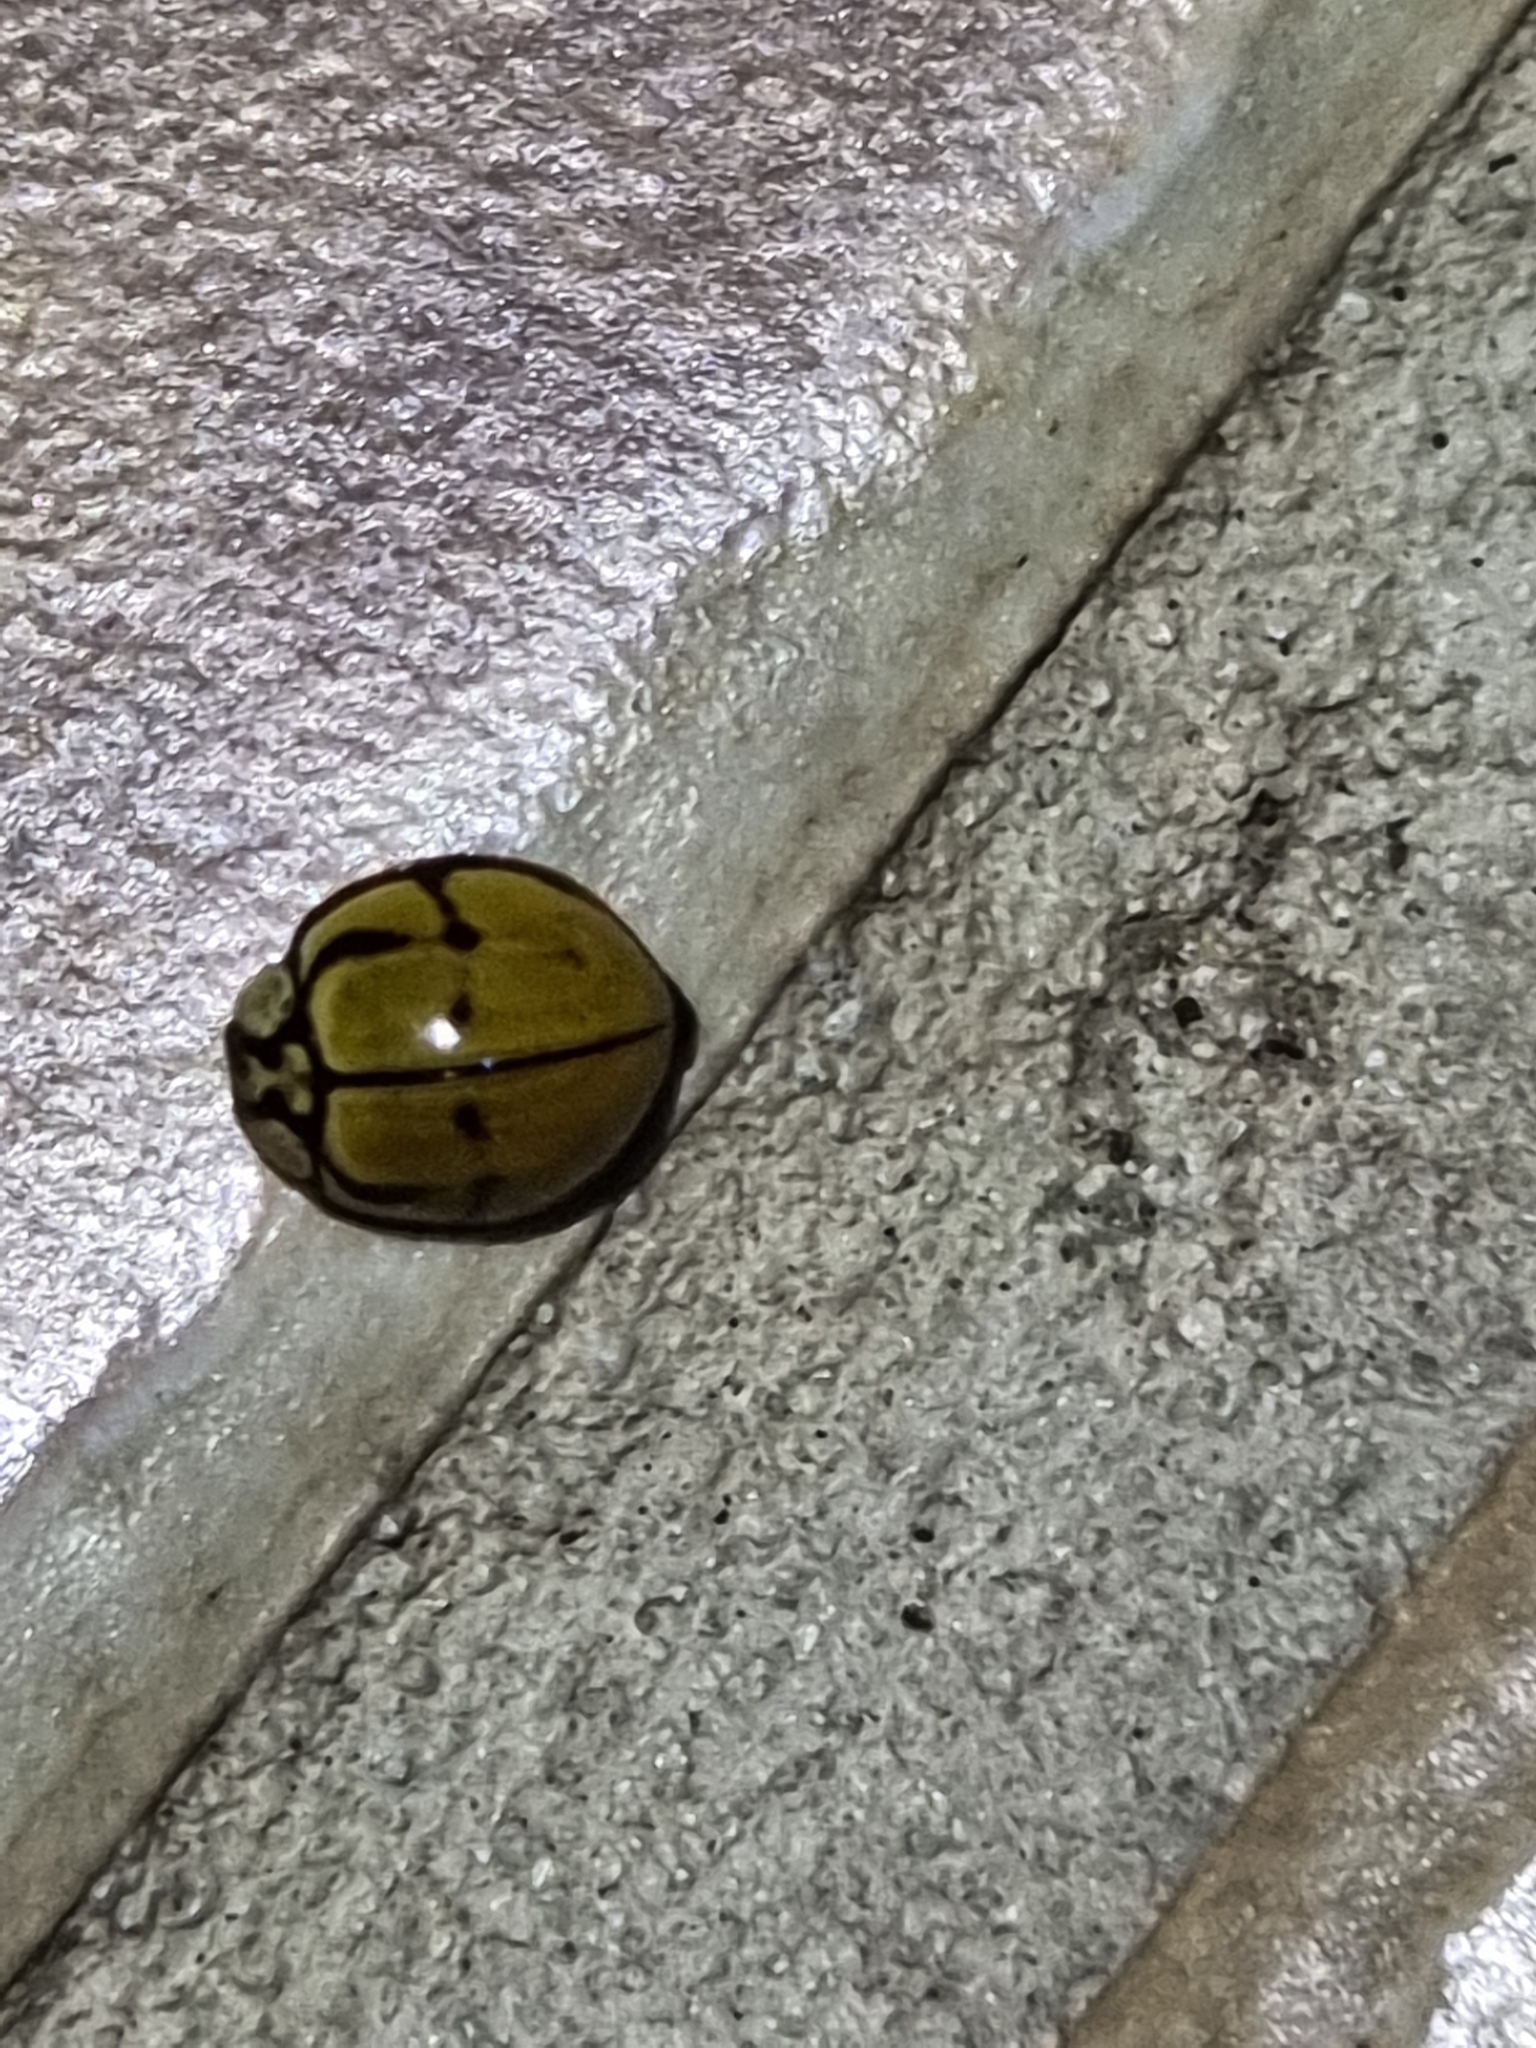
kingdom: Animalia
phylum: Arthropoda
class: Insecta
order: Coleoptera
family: Coccinellidae
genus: Harmonia
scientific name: Harmonia
